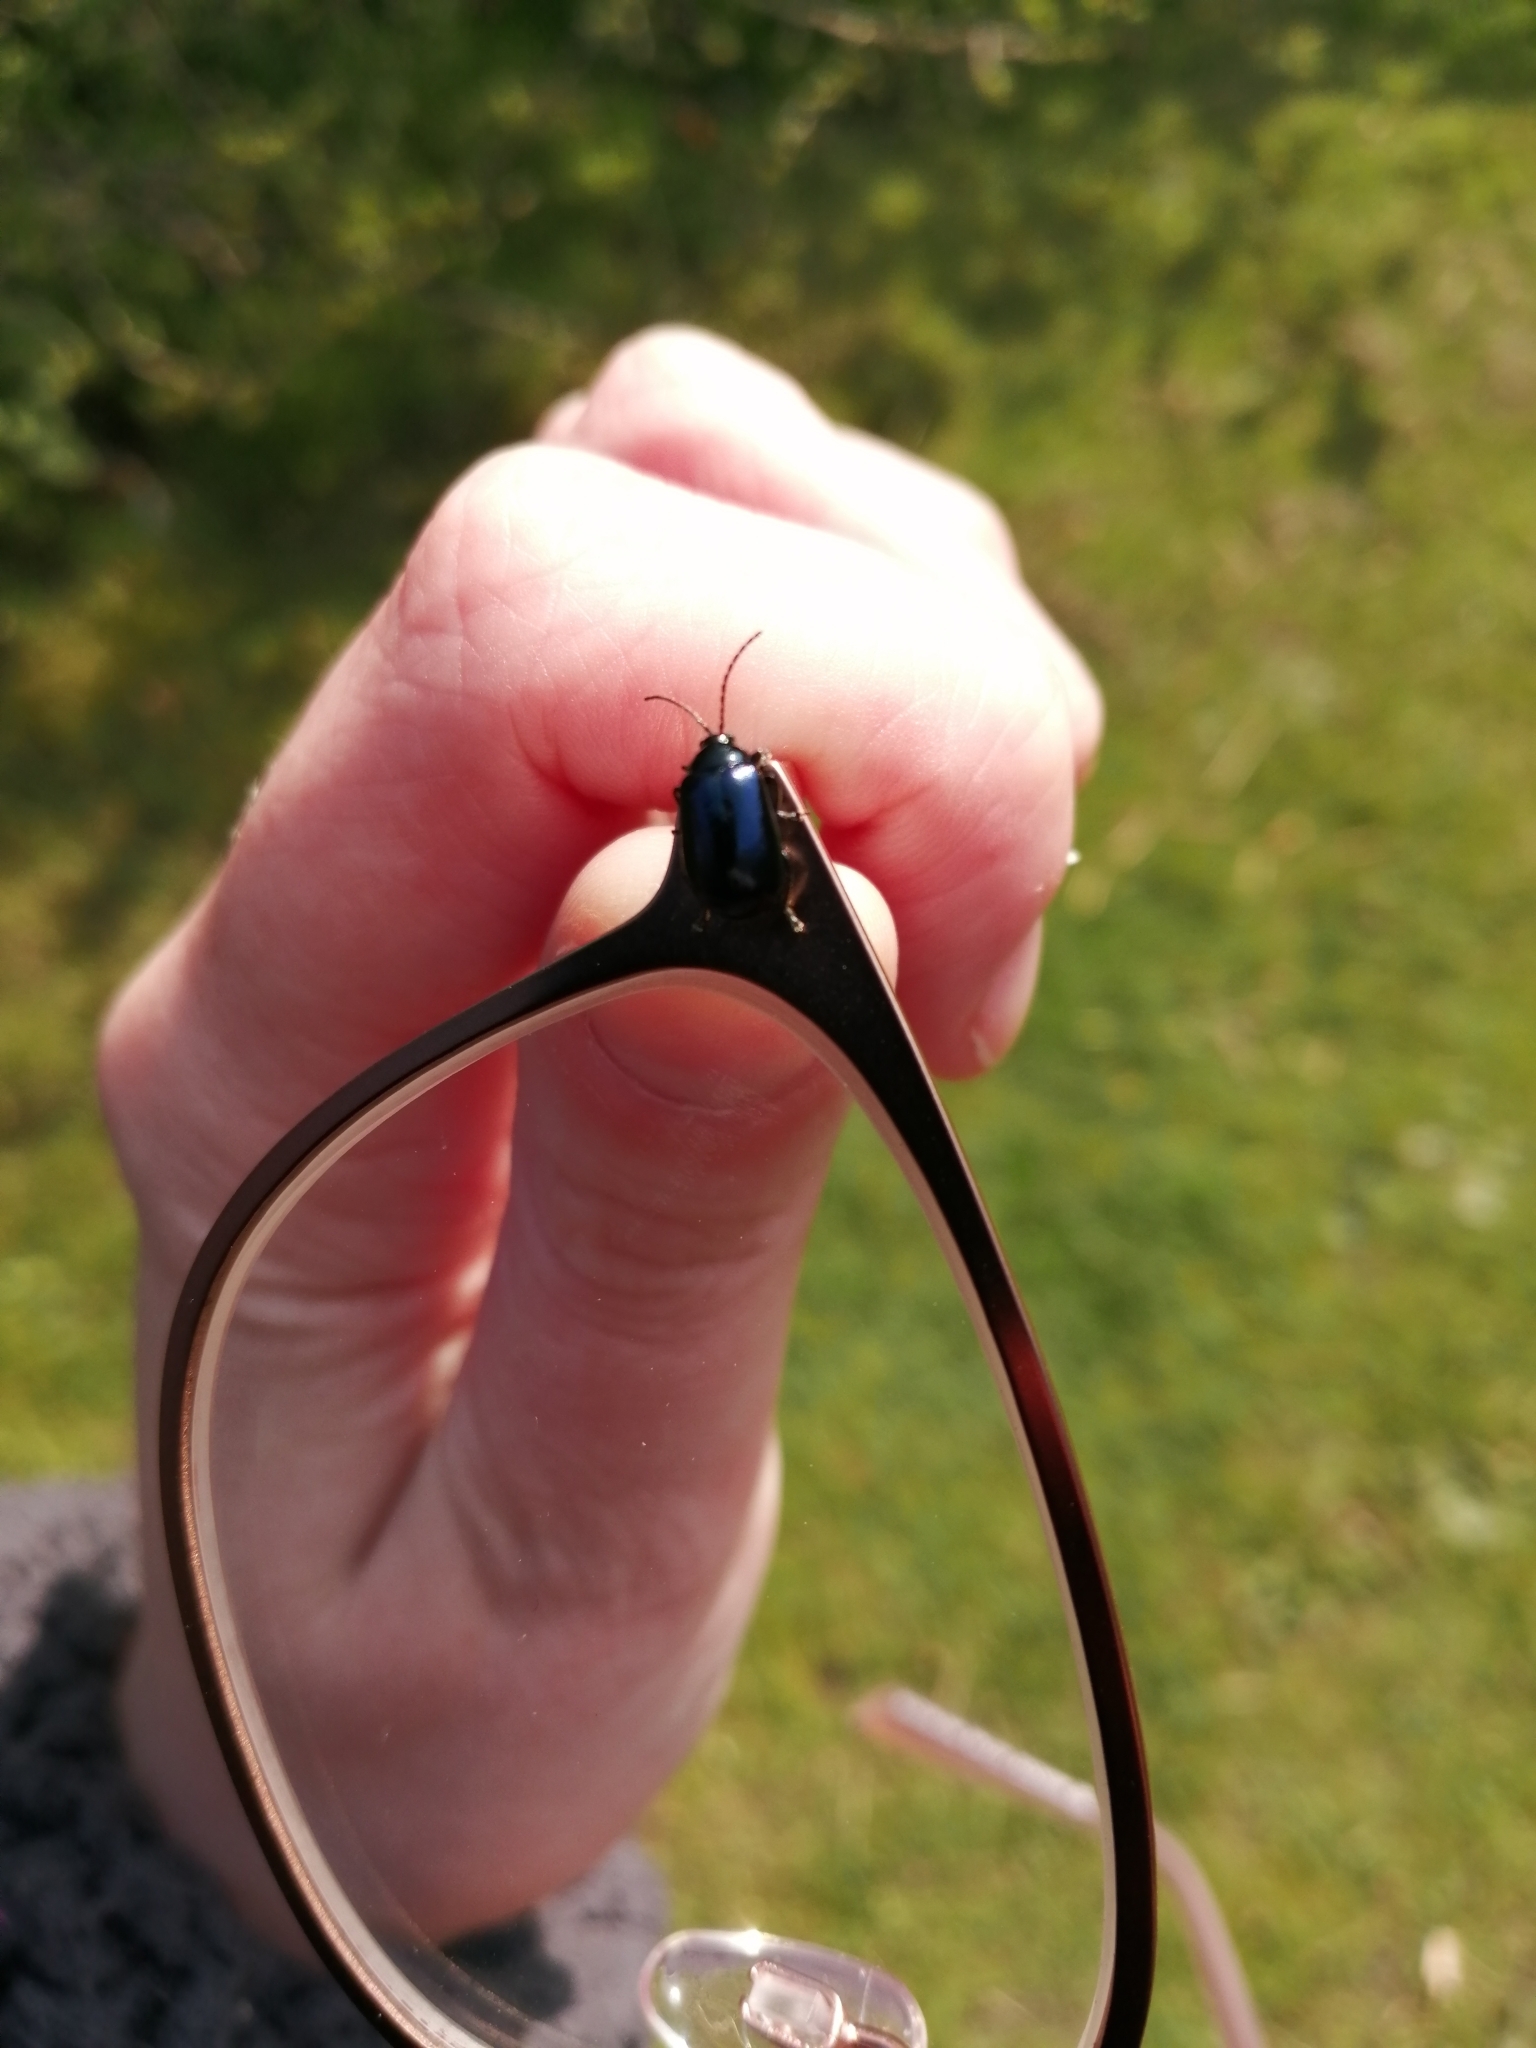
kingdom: Animalia
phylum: Arthropoda
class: Insecta
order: Coleoptera
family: Chrysomelidae
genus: Agelastica
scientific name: Agelastica alni
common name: Alder leaf beetle
